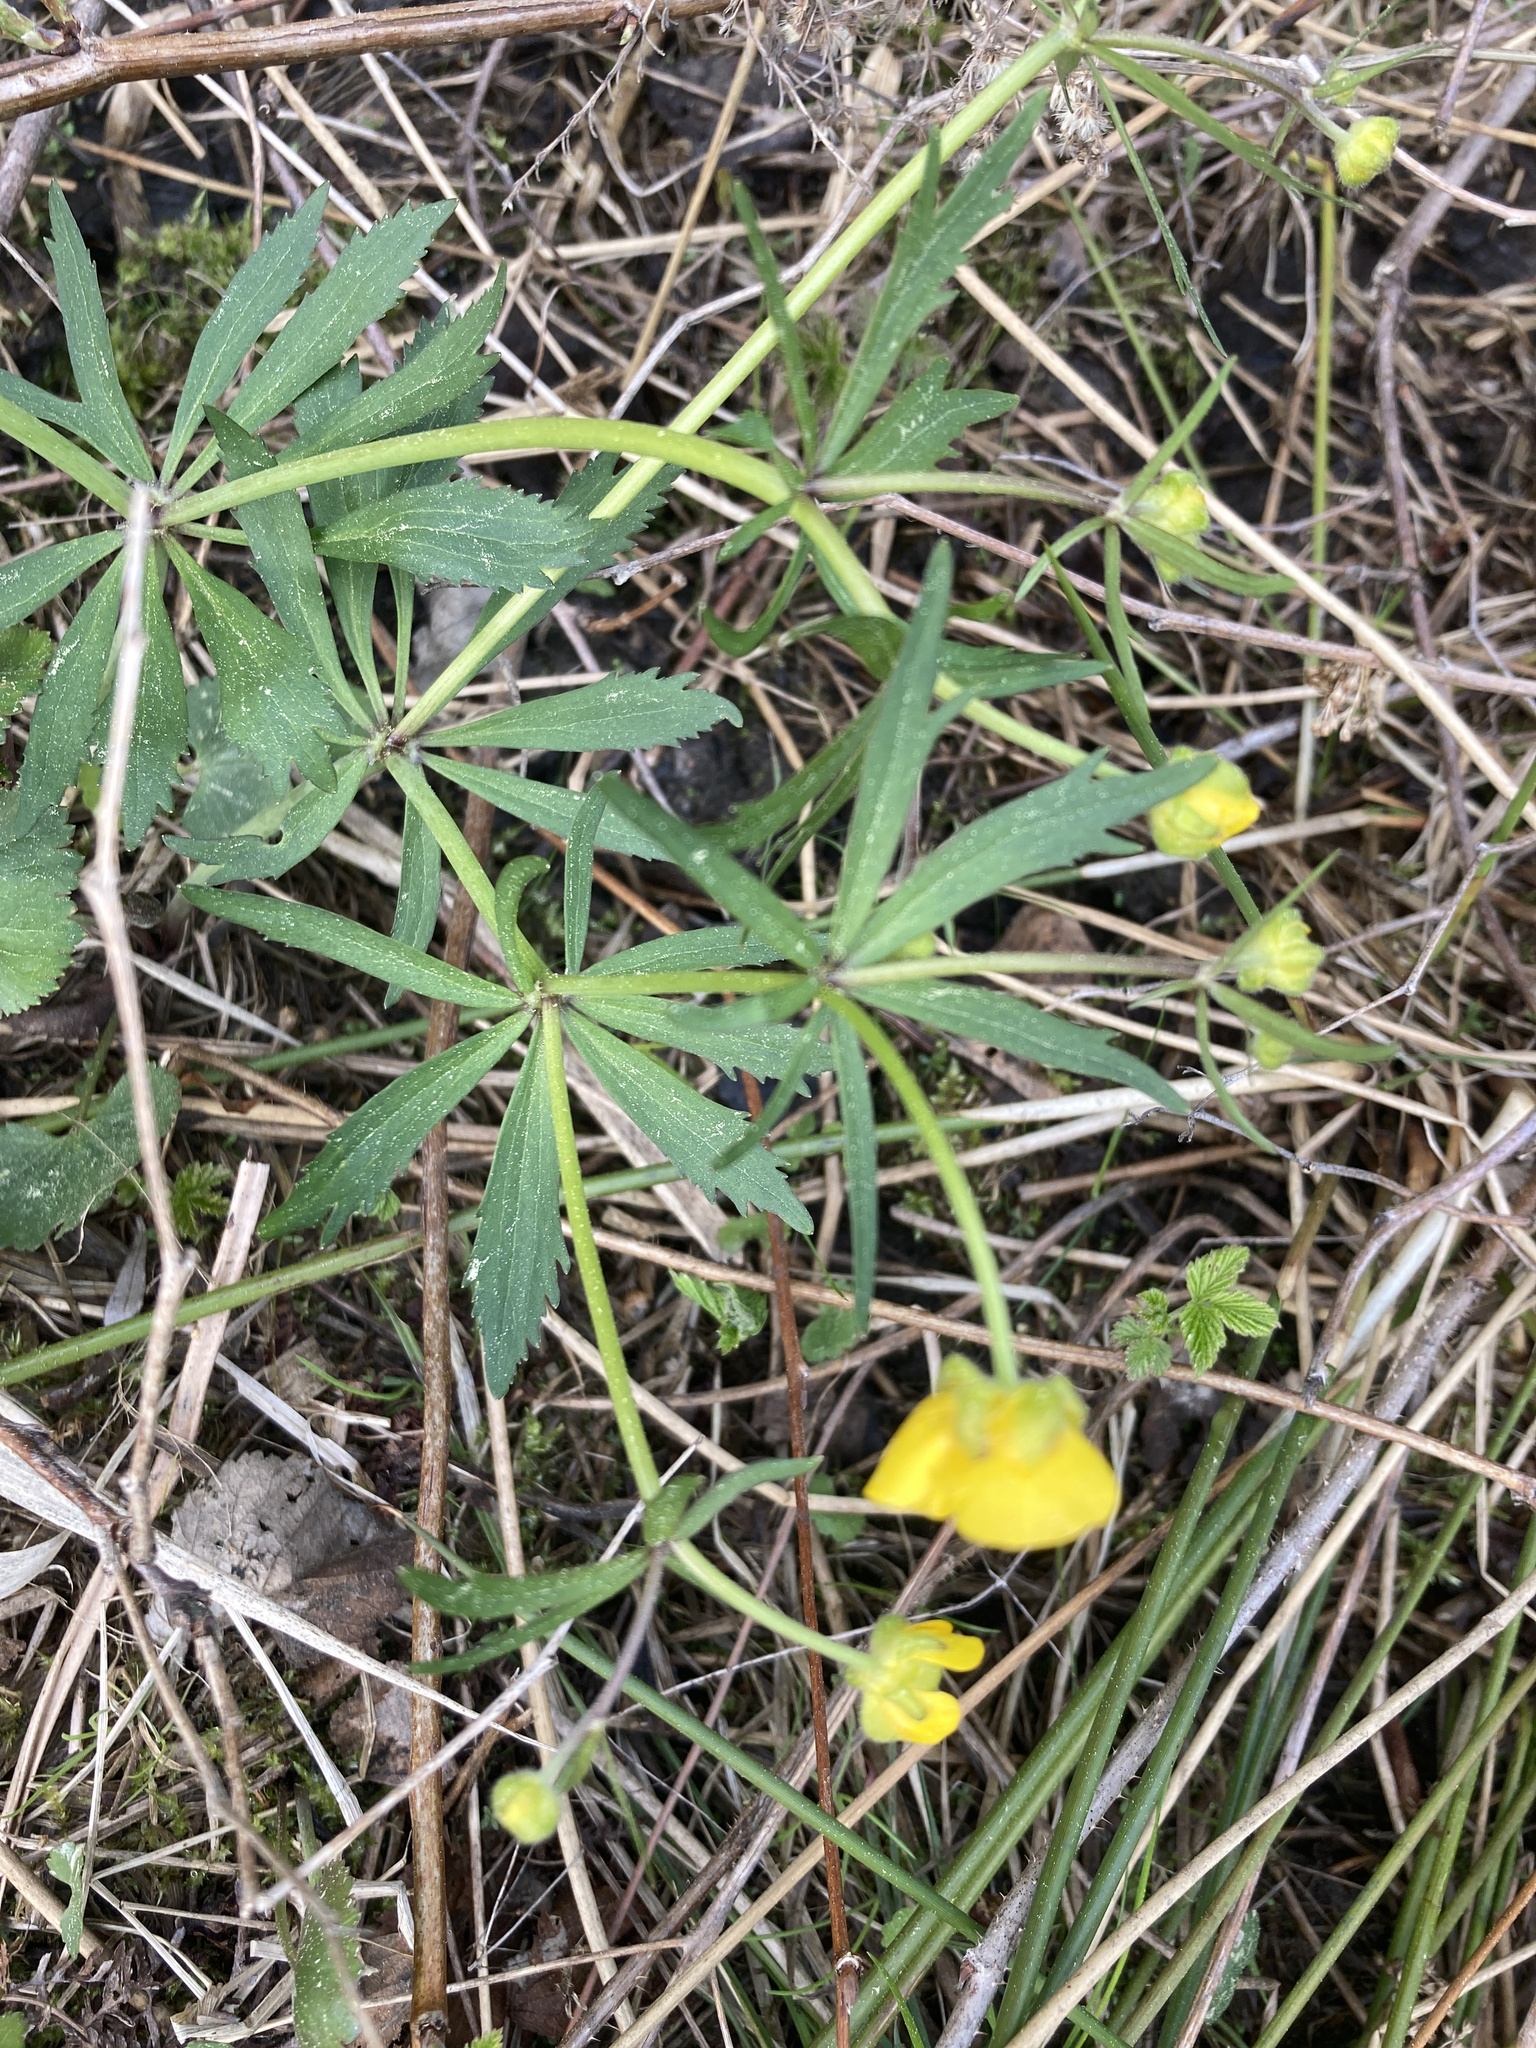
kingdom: Plantae
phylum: Tracheophyta
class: Magnoliopsida
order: Ranunculales
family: Ranunculaceae
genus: Ranunculus
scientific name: Ranunculus cassubicus
